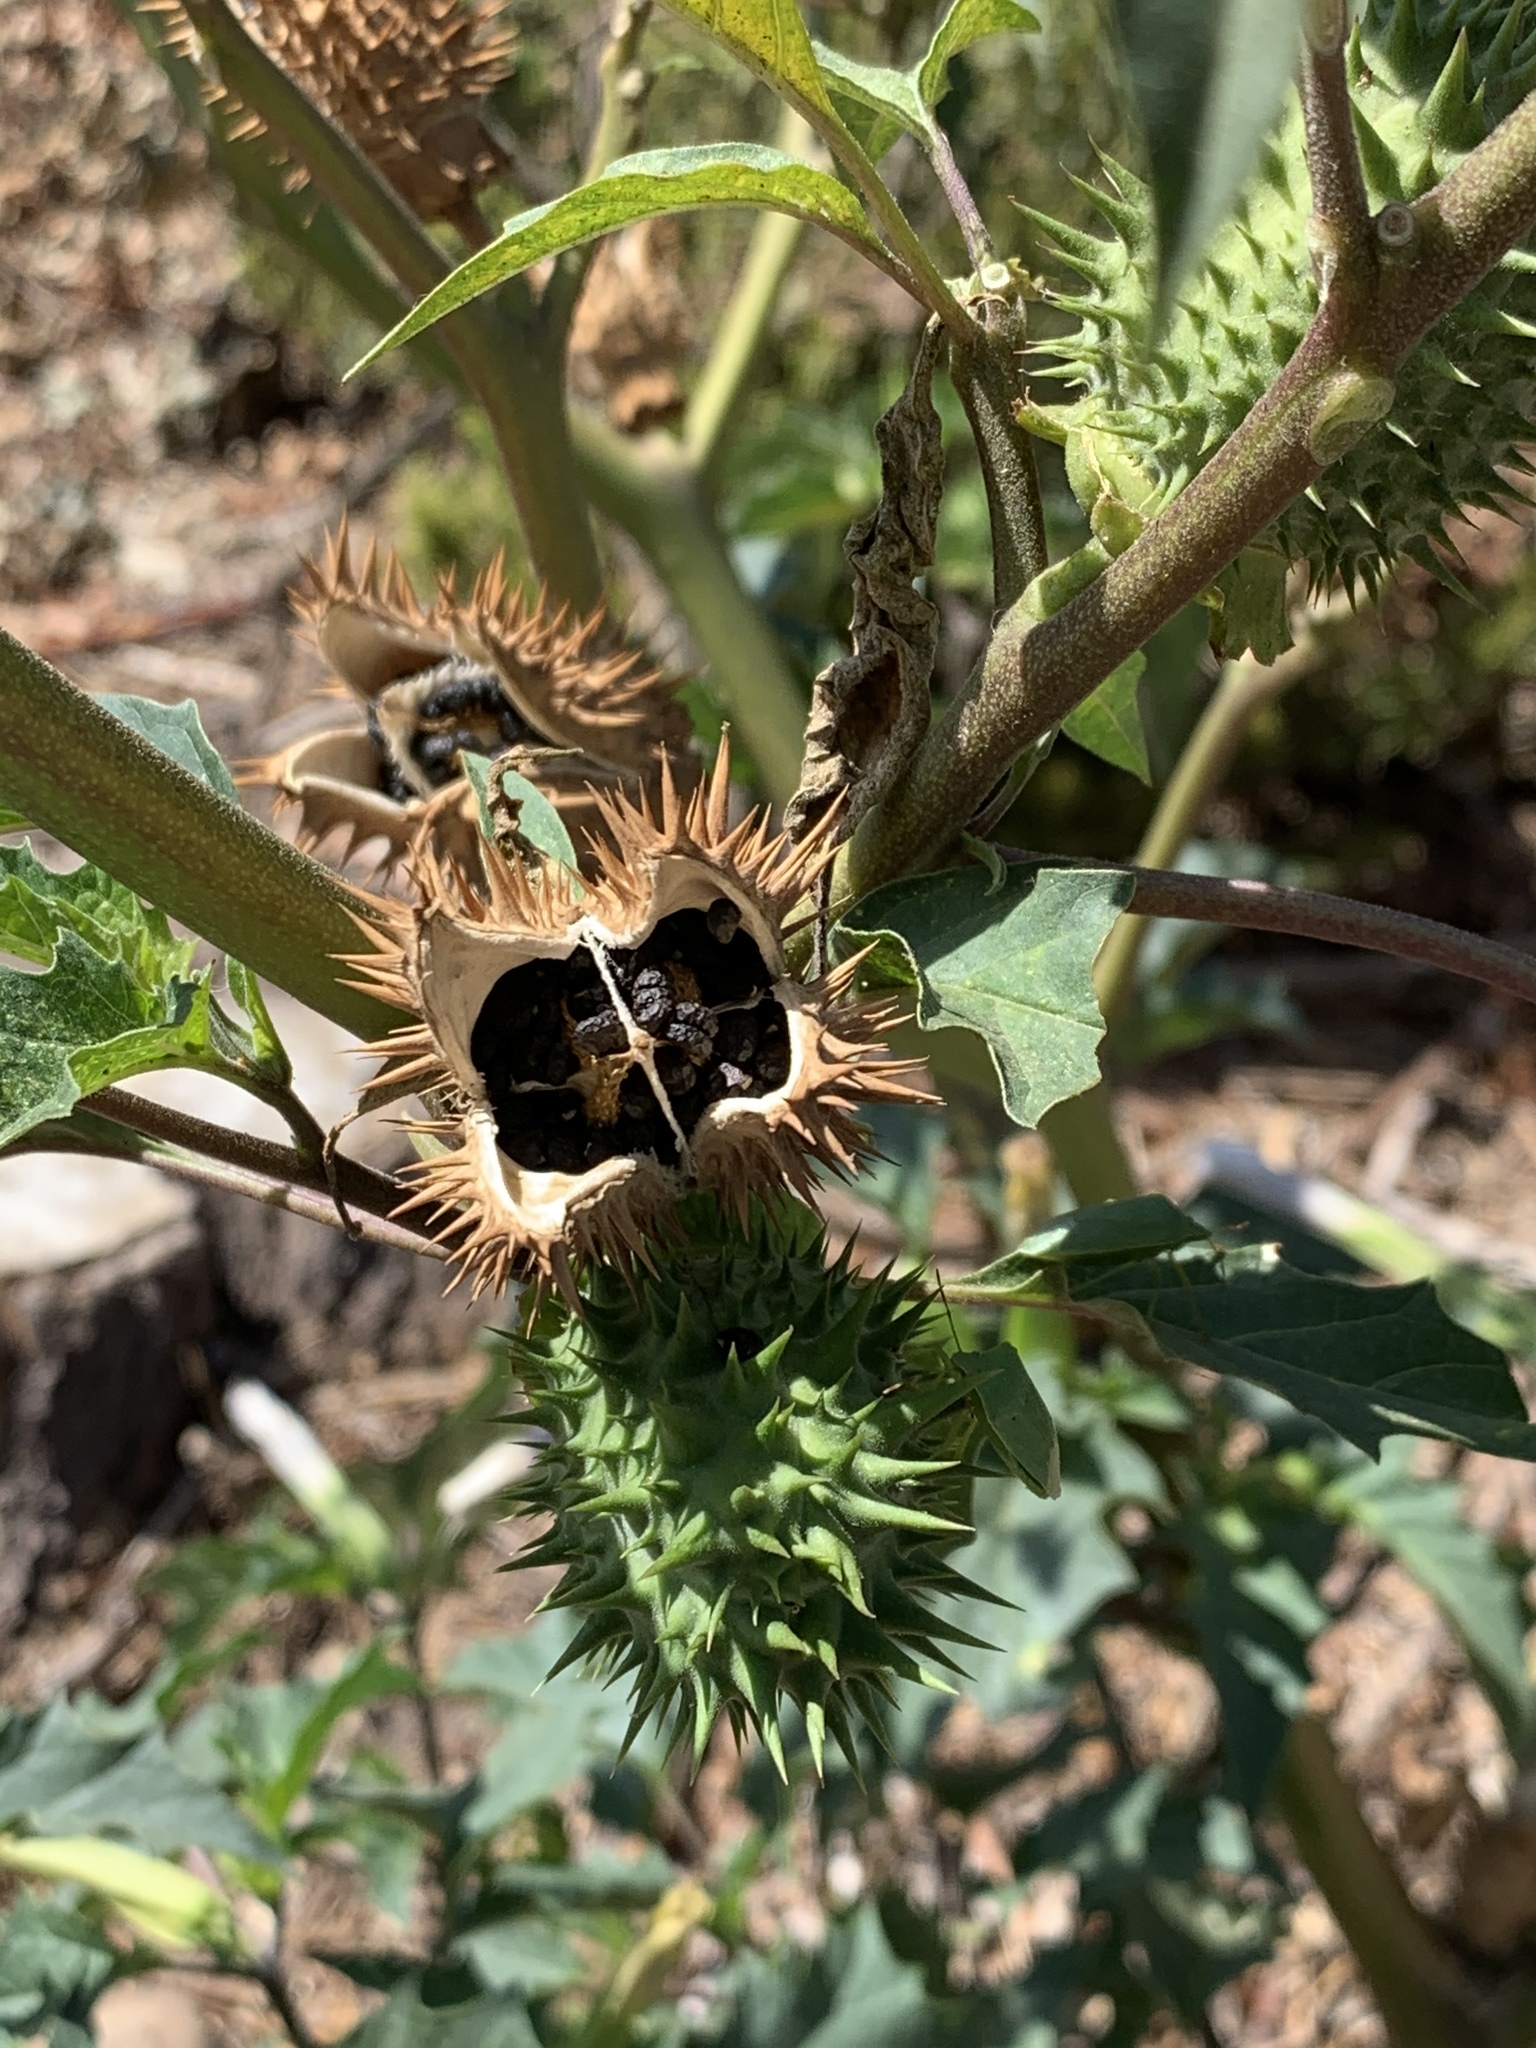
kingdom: Plantae
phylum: Tracheophyta
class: Magnoliopsida
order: Solanales
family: Solanaceae
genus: Datura
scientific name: Datura stramonium
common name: Thorn-apple
